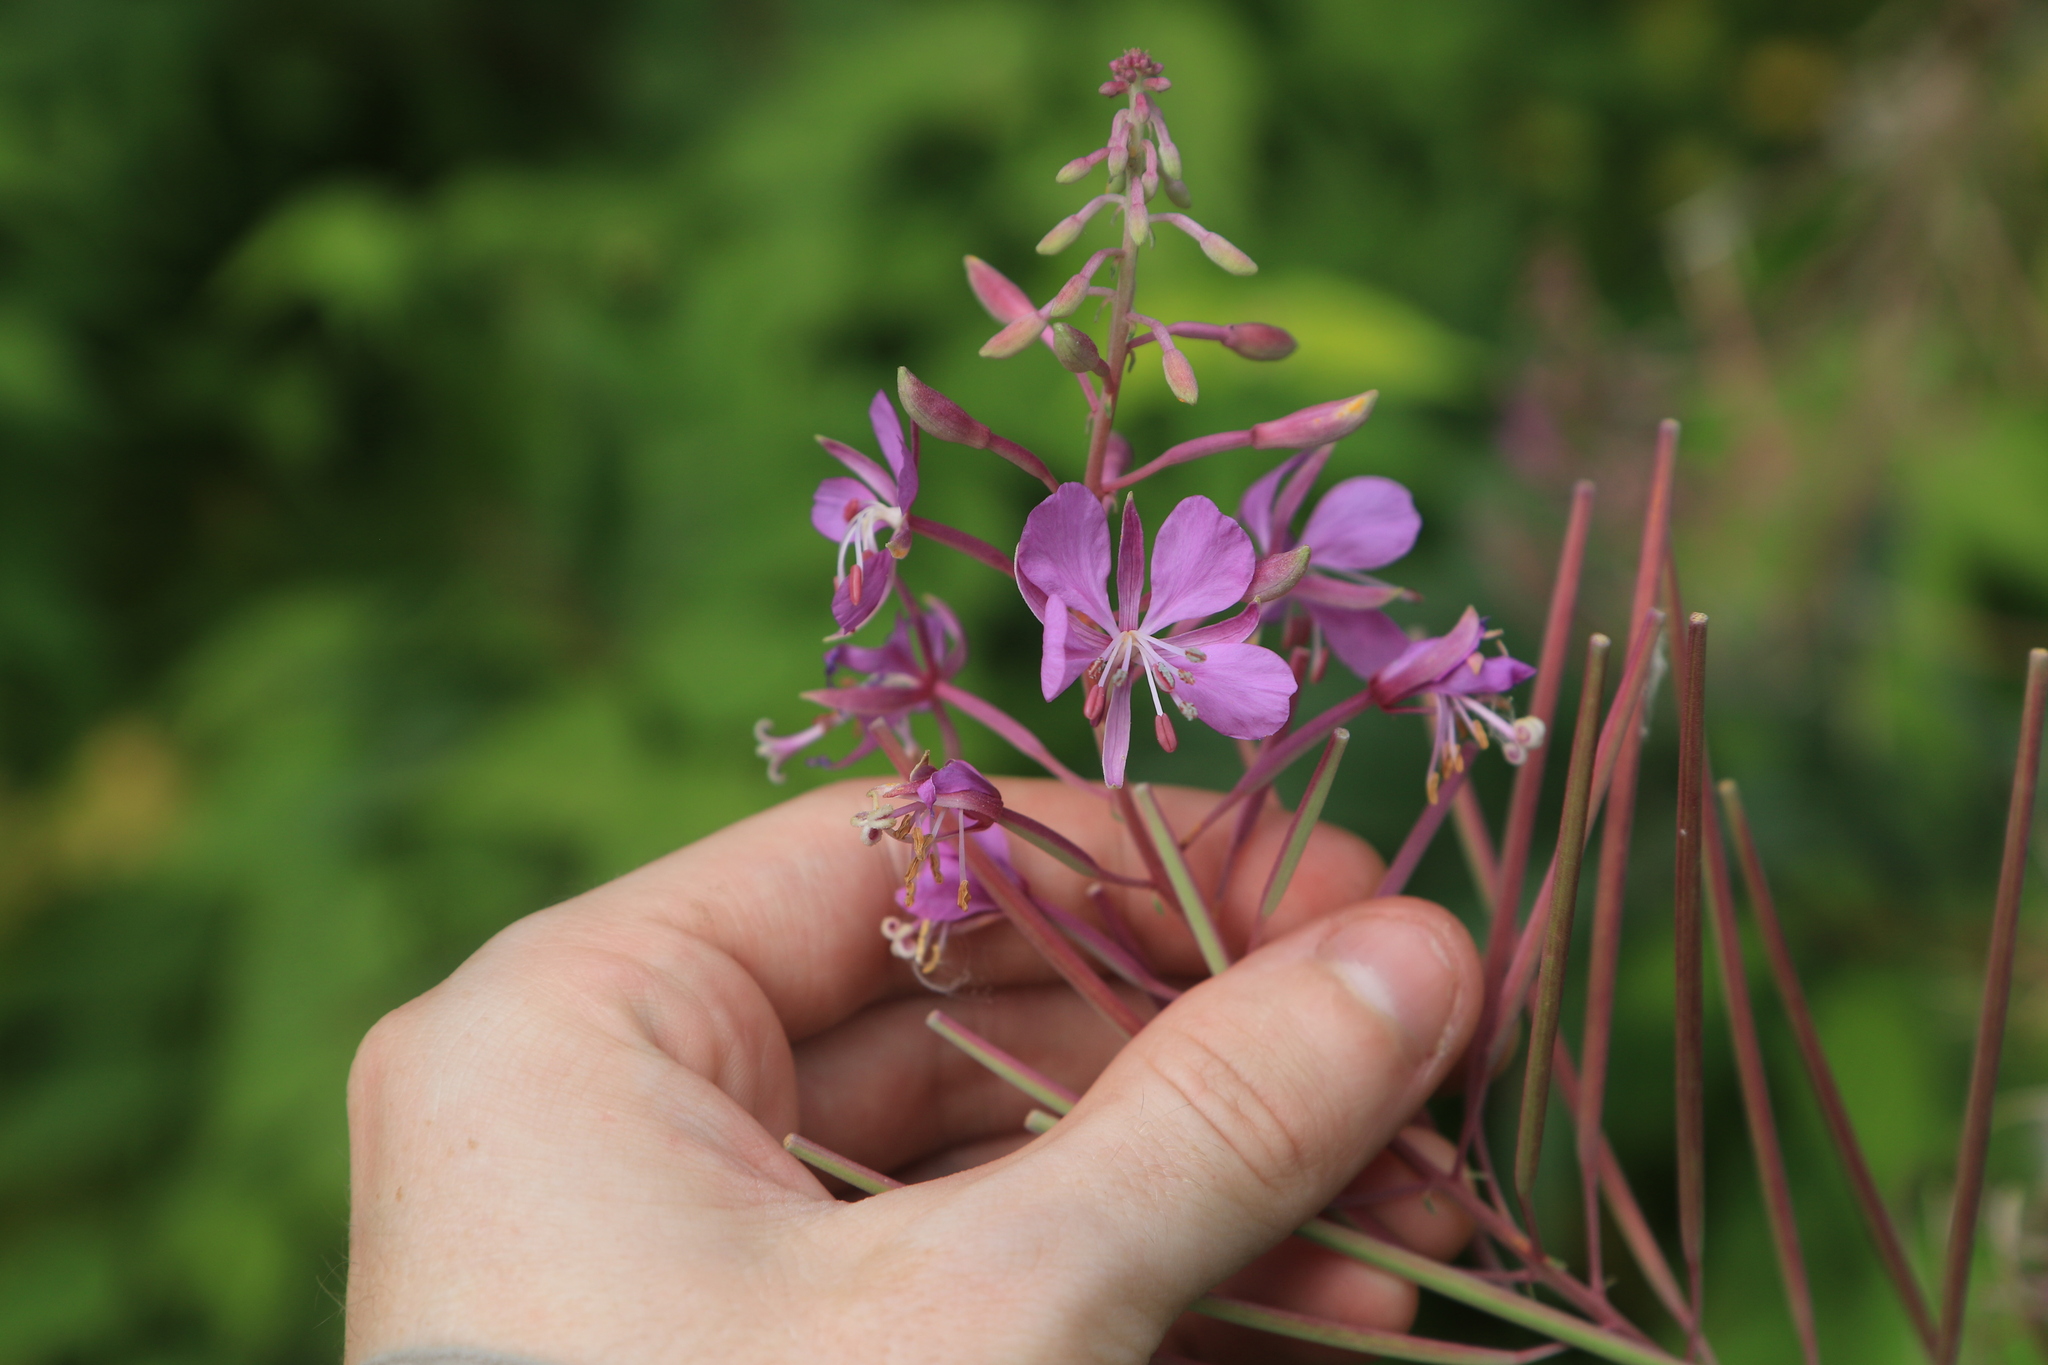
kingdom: Plantae
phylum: Tracheophyta
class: Magnoliopsida
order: Myrtales
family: Onagraceae
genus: Chamaenerion
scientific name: Chamaenerion angustifolium
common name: Fireweed
